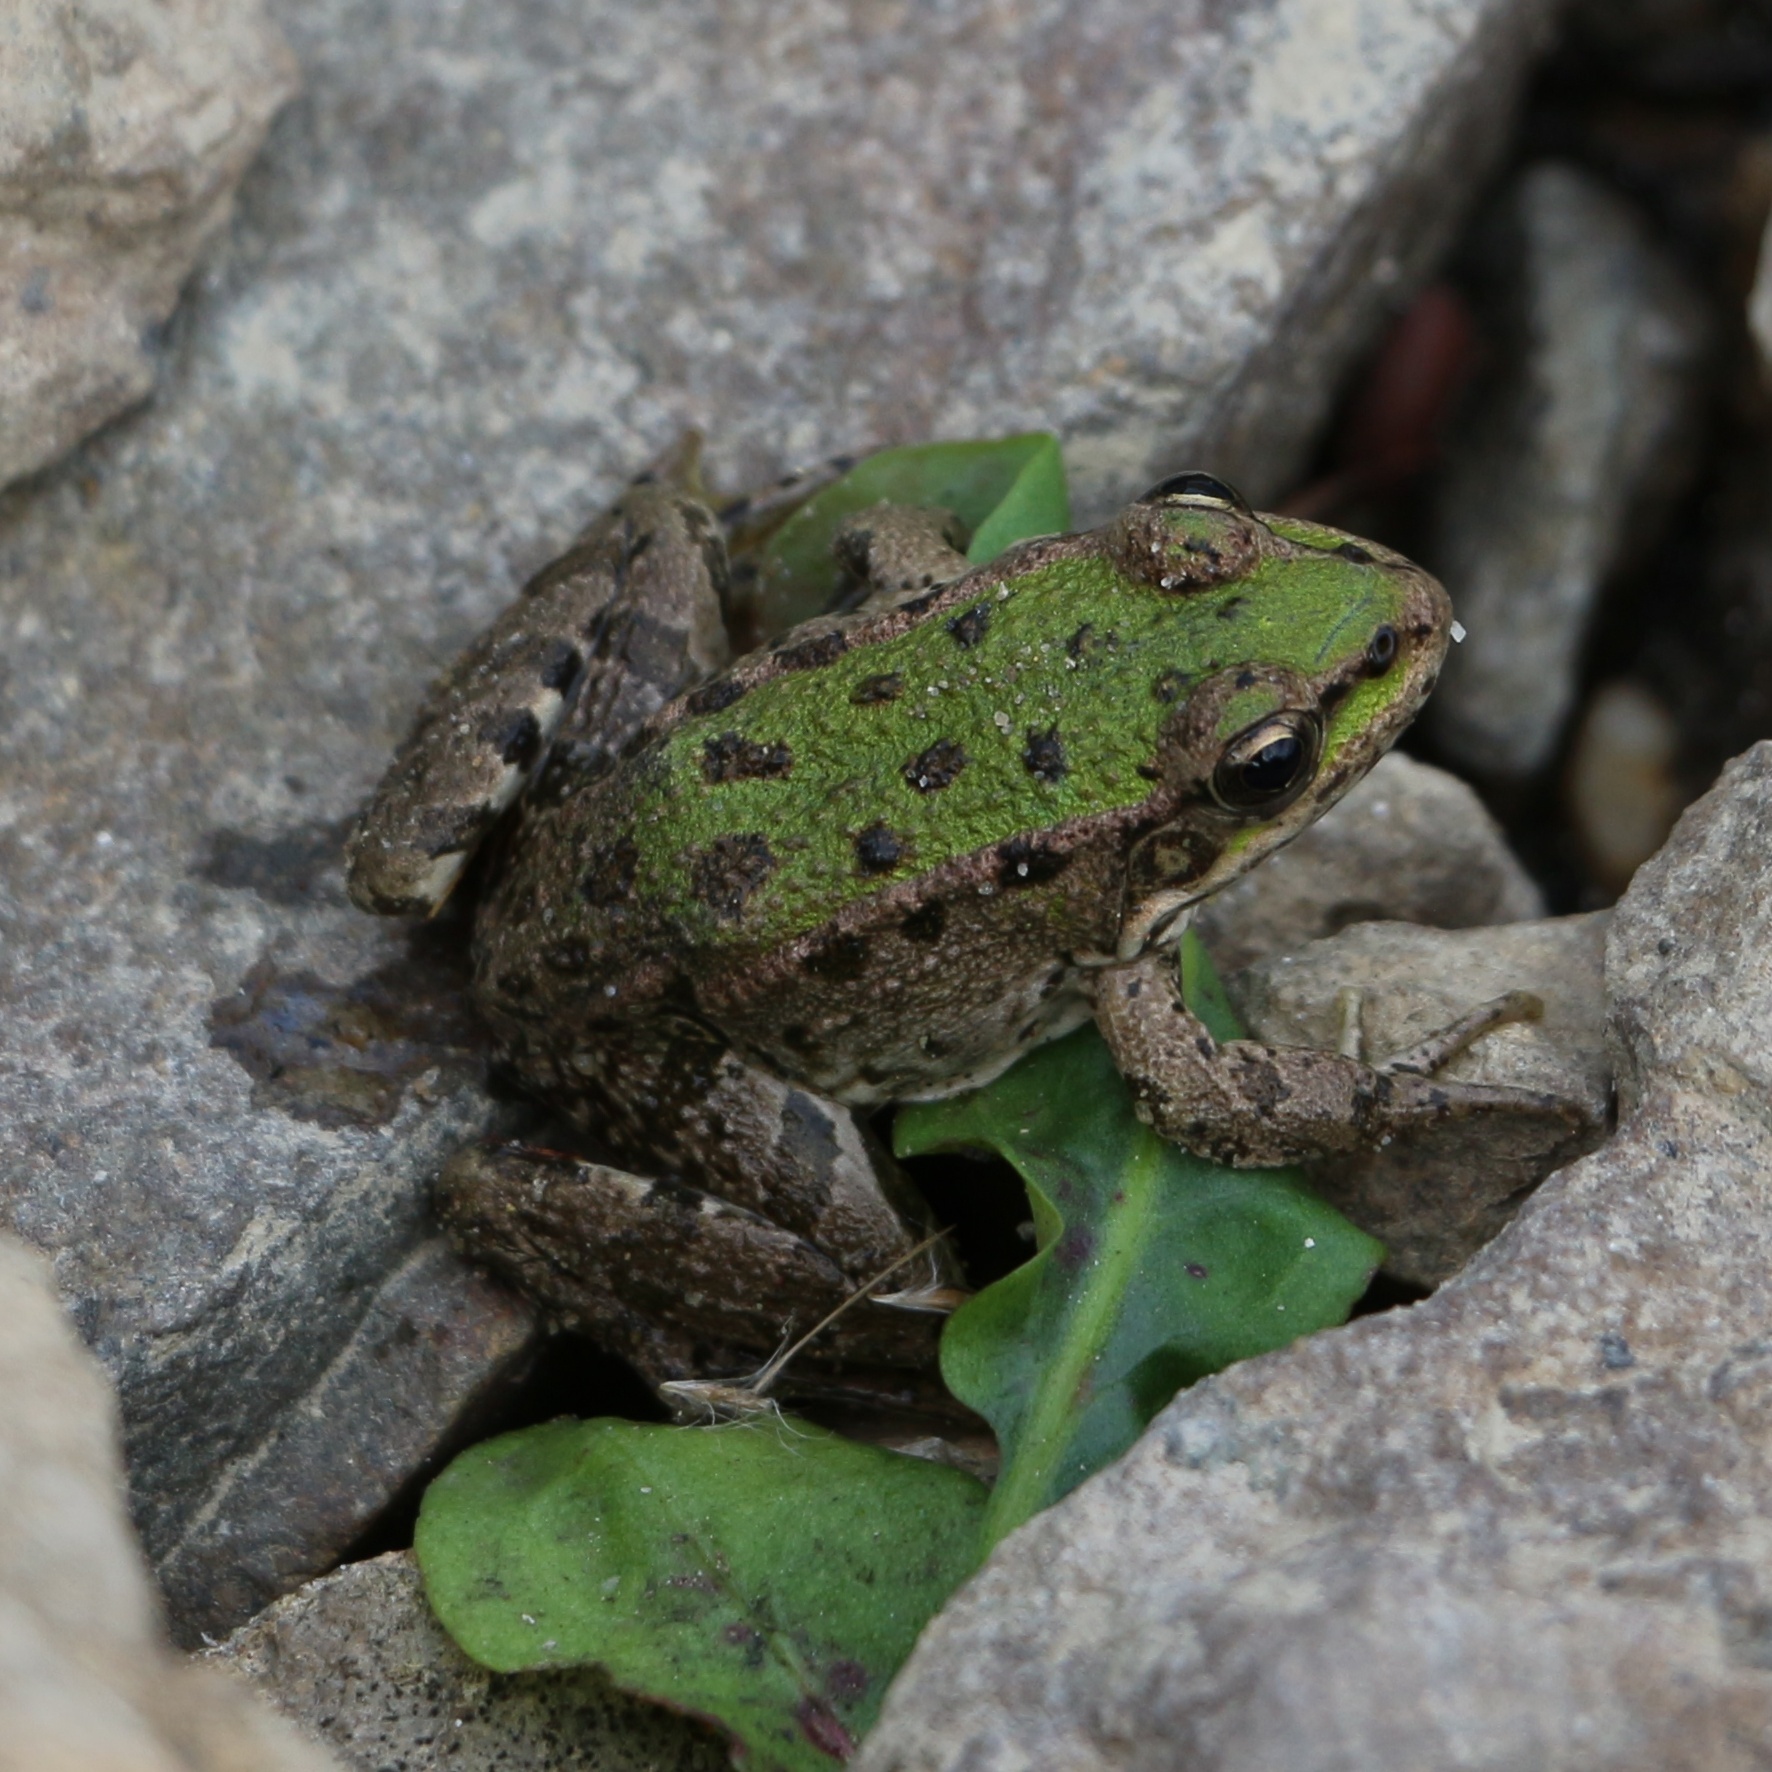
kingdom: Animalia
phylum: Chordata
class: Amphibia
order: Anura
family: Ranidae
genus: Pelophylax
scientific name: Pelophylax ridibundus
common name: Marsh frog
